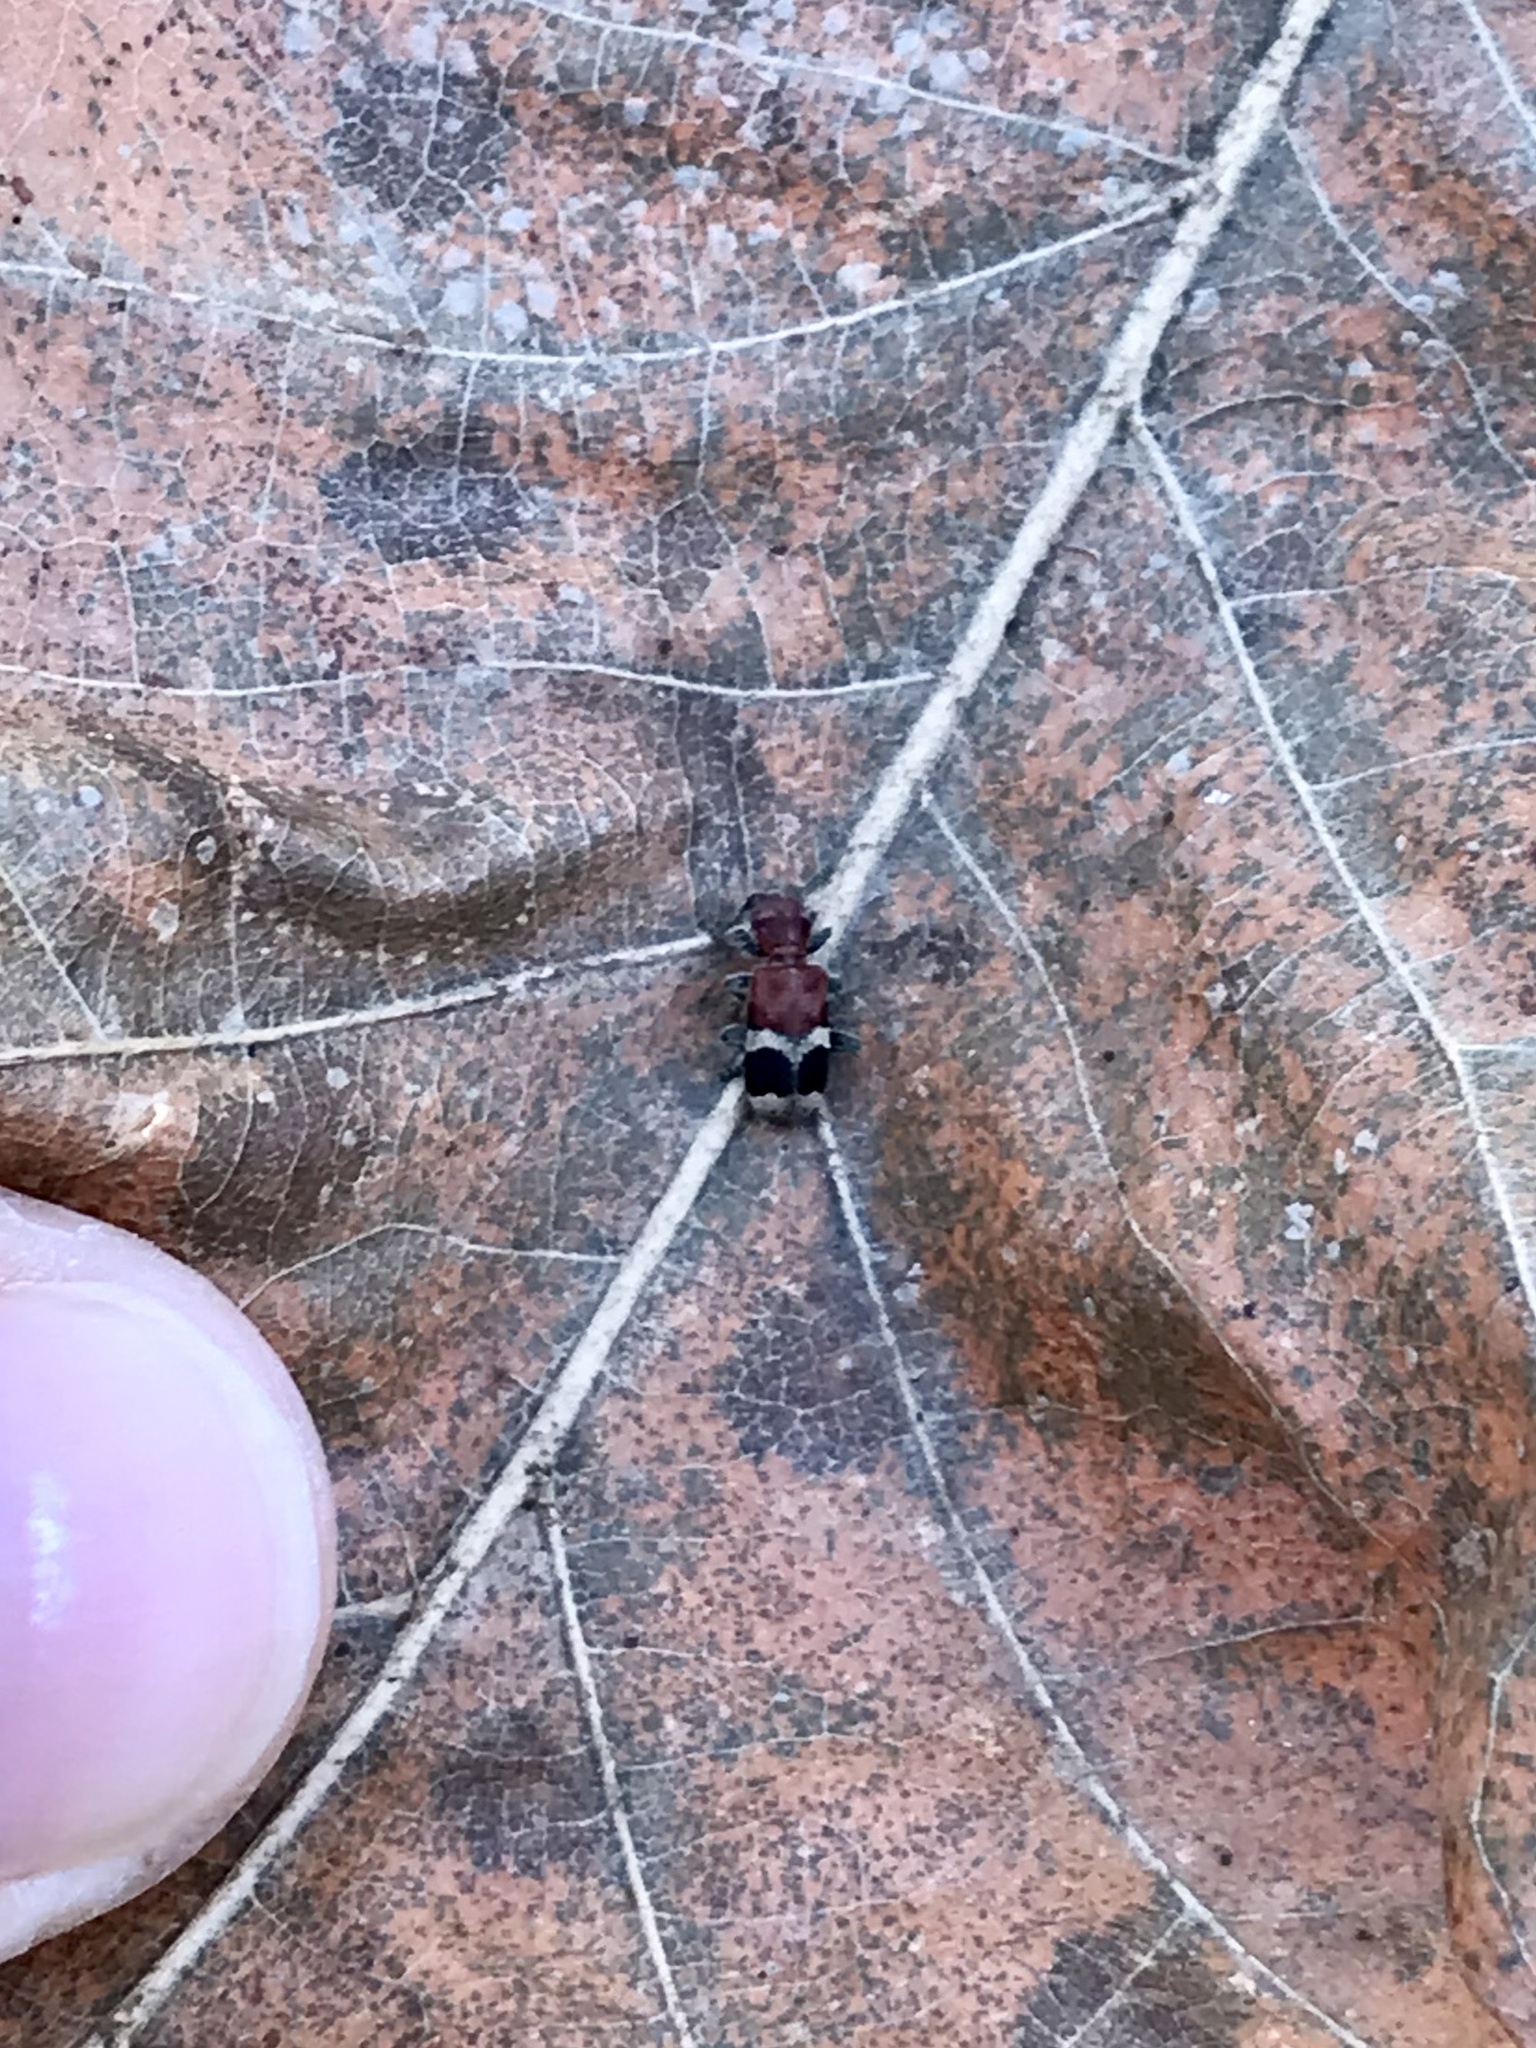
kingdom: Animalia
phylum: Arthropoda
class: Insecta
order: Coleoptera
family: Cleridae
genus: Enoclerus
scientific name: Enoclerus nigripes
